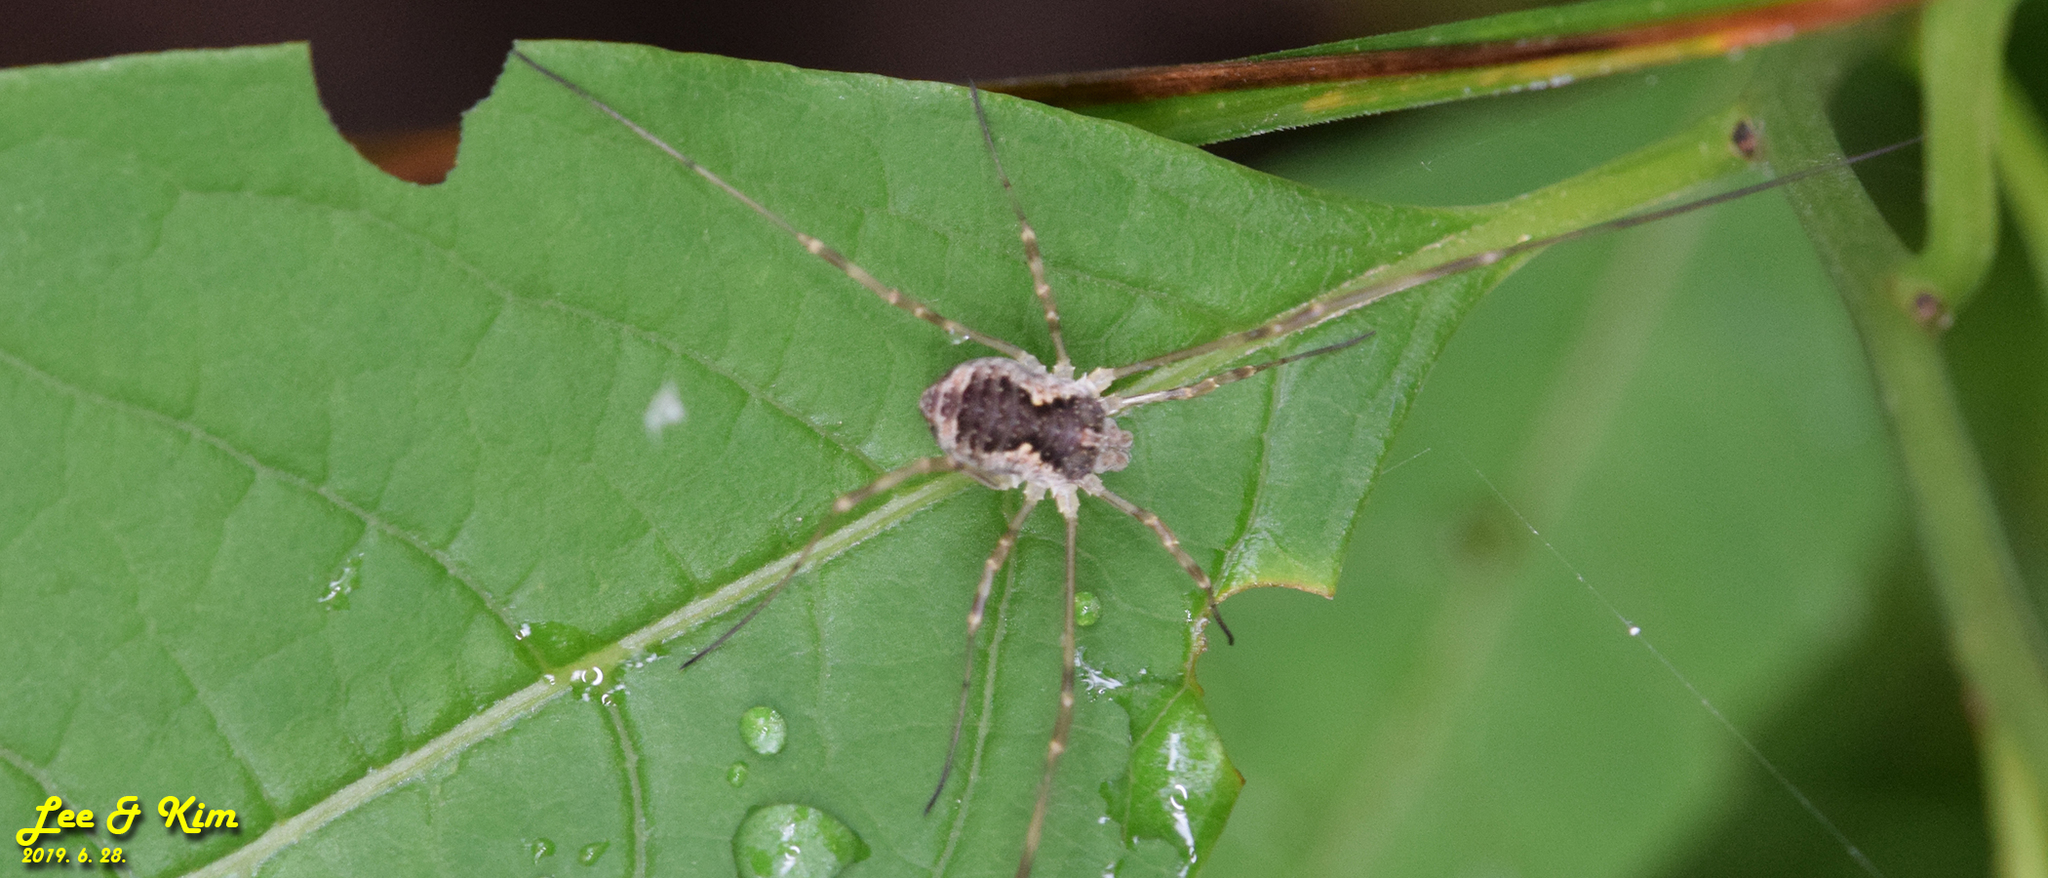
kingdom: Animalia
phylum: Arthropoda
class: Arachnida
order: Opiliones
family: Phalangiidae
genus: Oligolophus
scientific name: Oligolophus tienmushanensis
